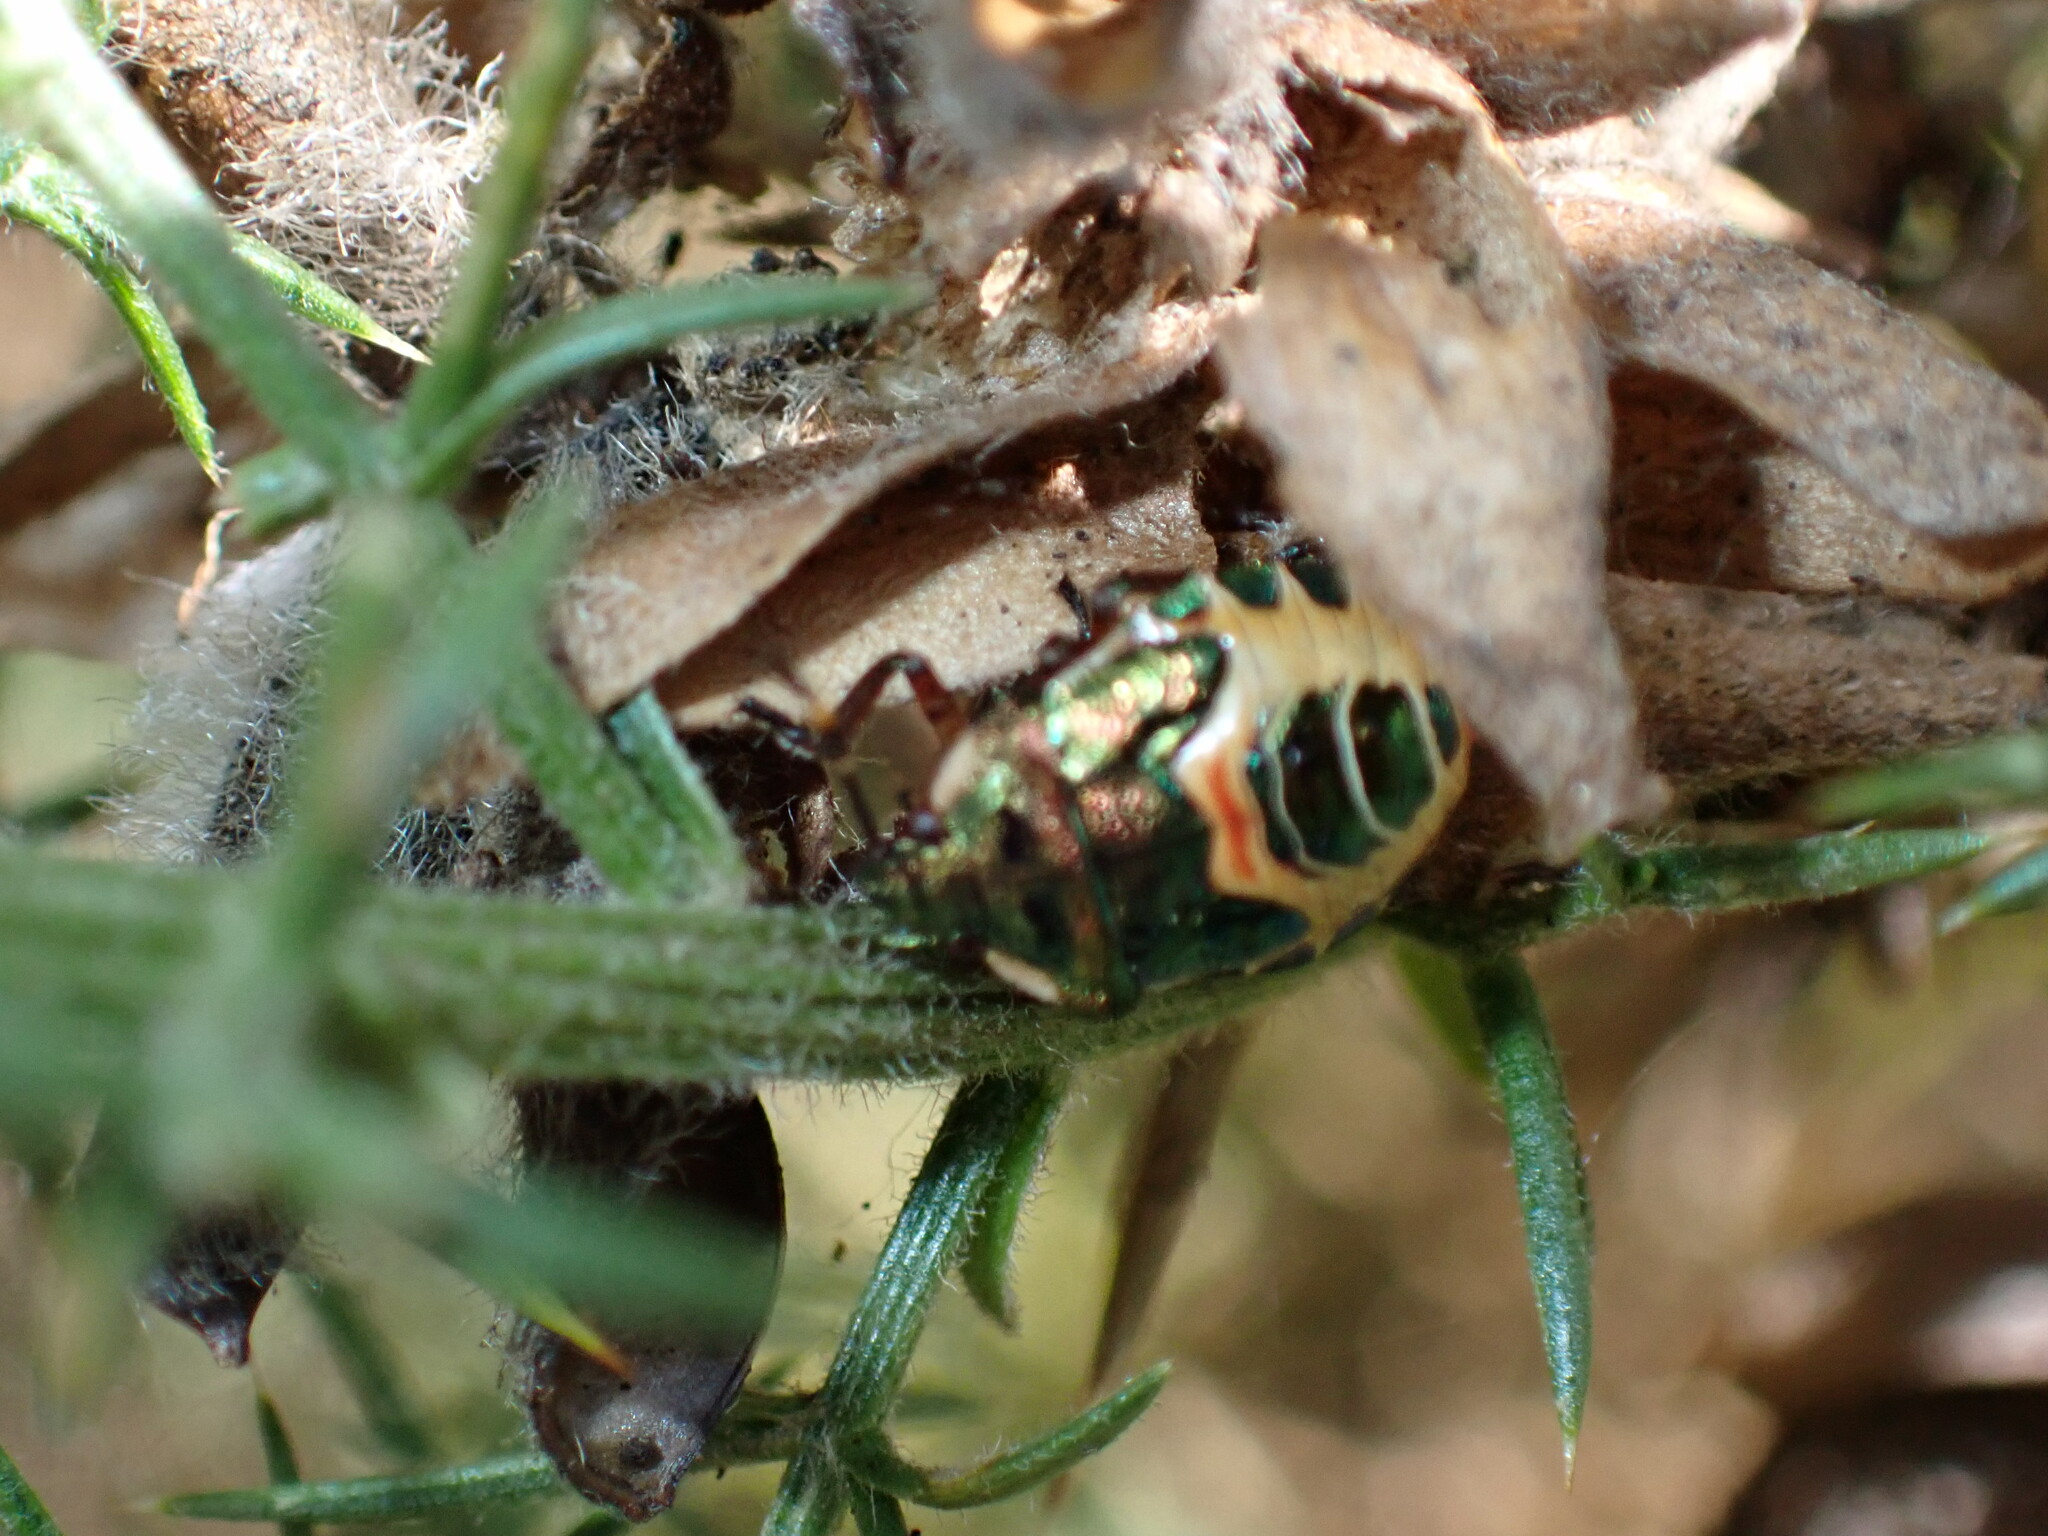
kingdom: Animalia
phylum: Arthropoda
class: Insecta
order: Hemiptera
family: Pentatomidae
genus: Troilus
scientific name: Troilus luridus
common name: Bronze shieldbug
